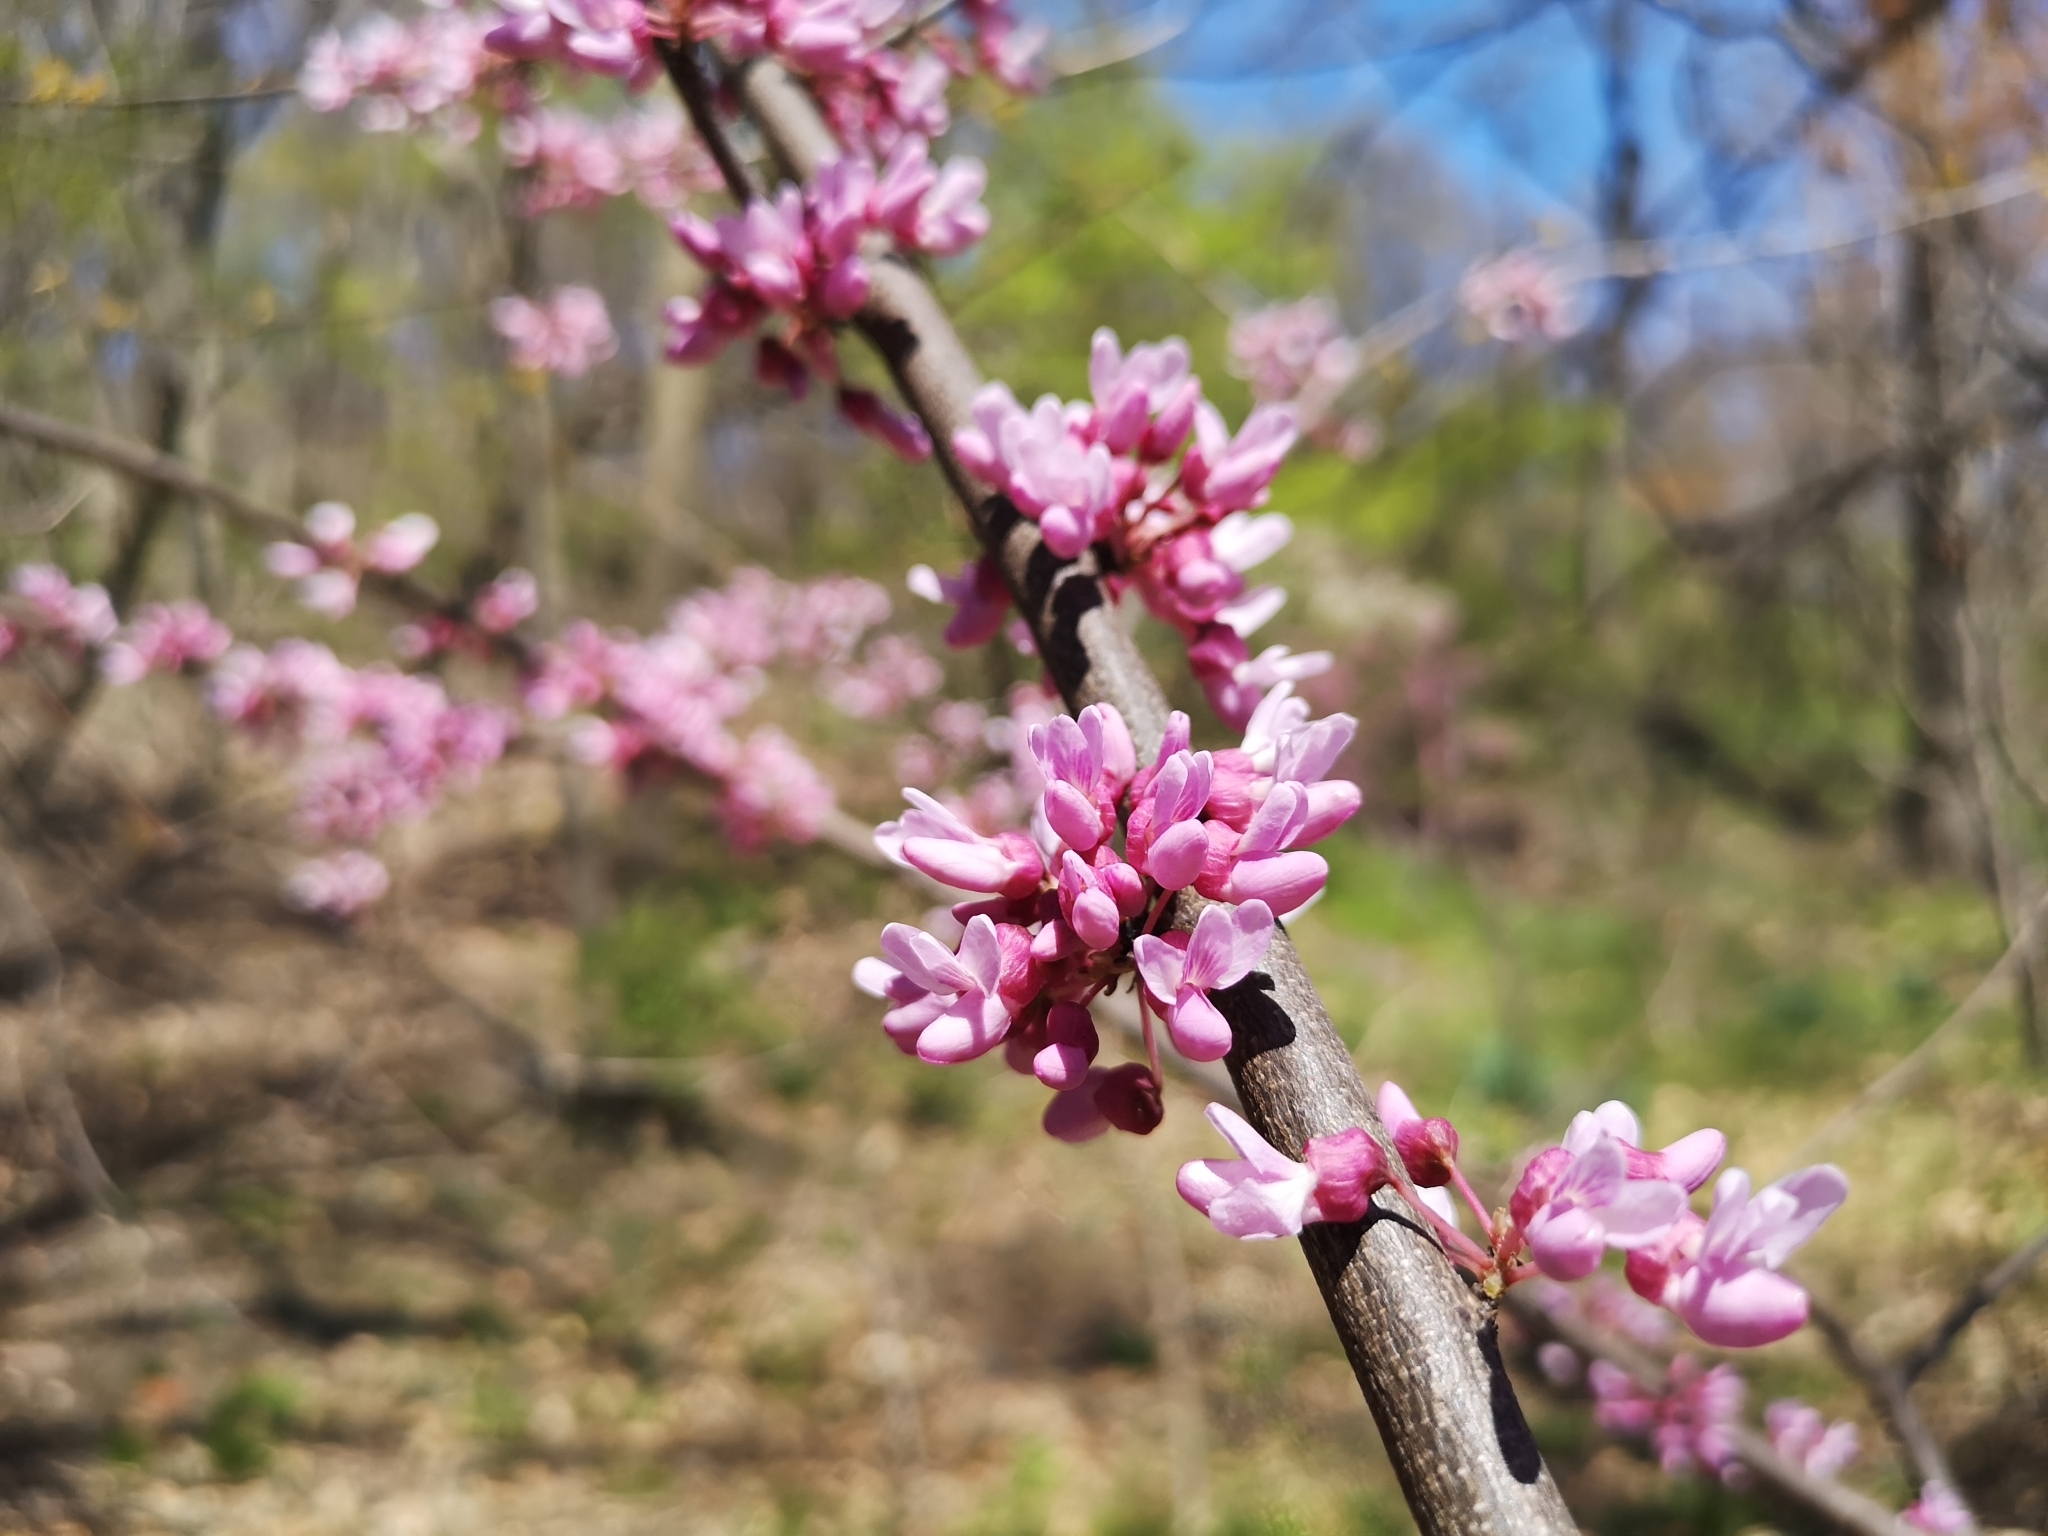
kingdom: Plantae
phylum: Tracheophyta
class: Magnoliopsida
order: Fabales
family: Fabaceae
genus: Cercis
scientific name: Cercis canadensis
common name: Eastern redbud
